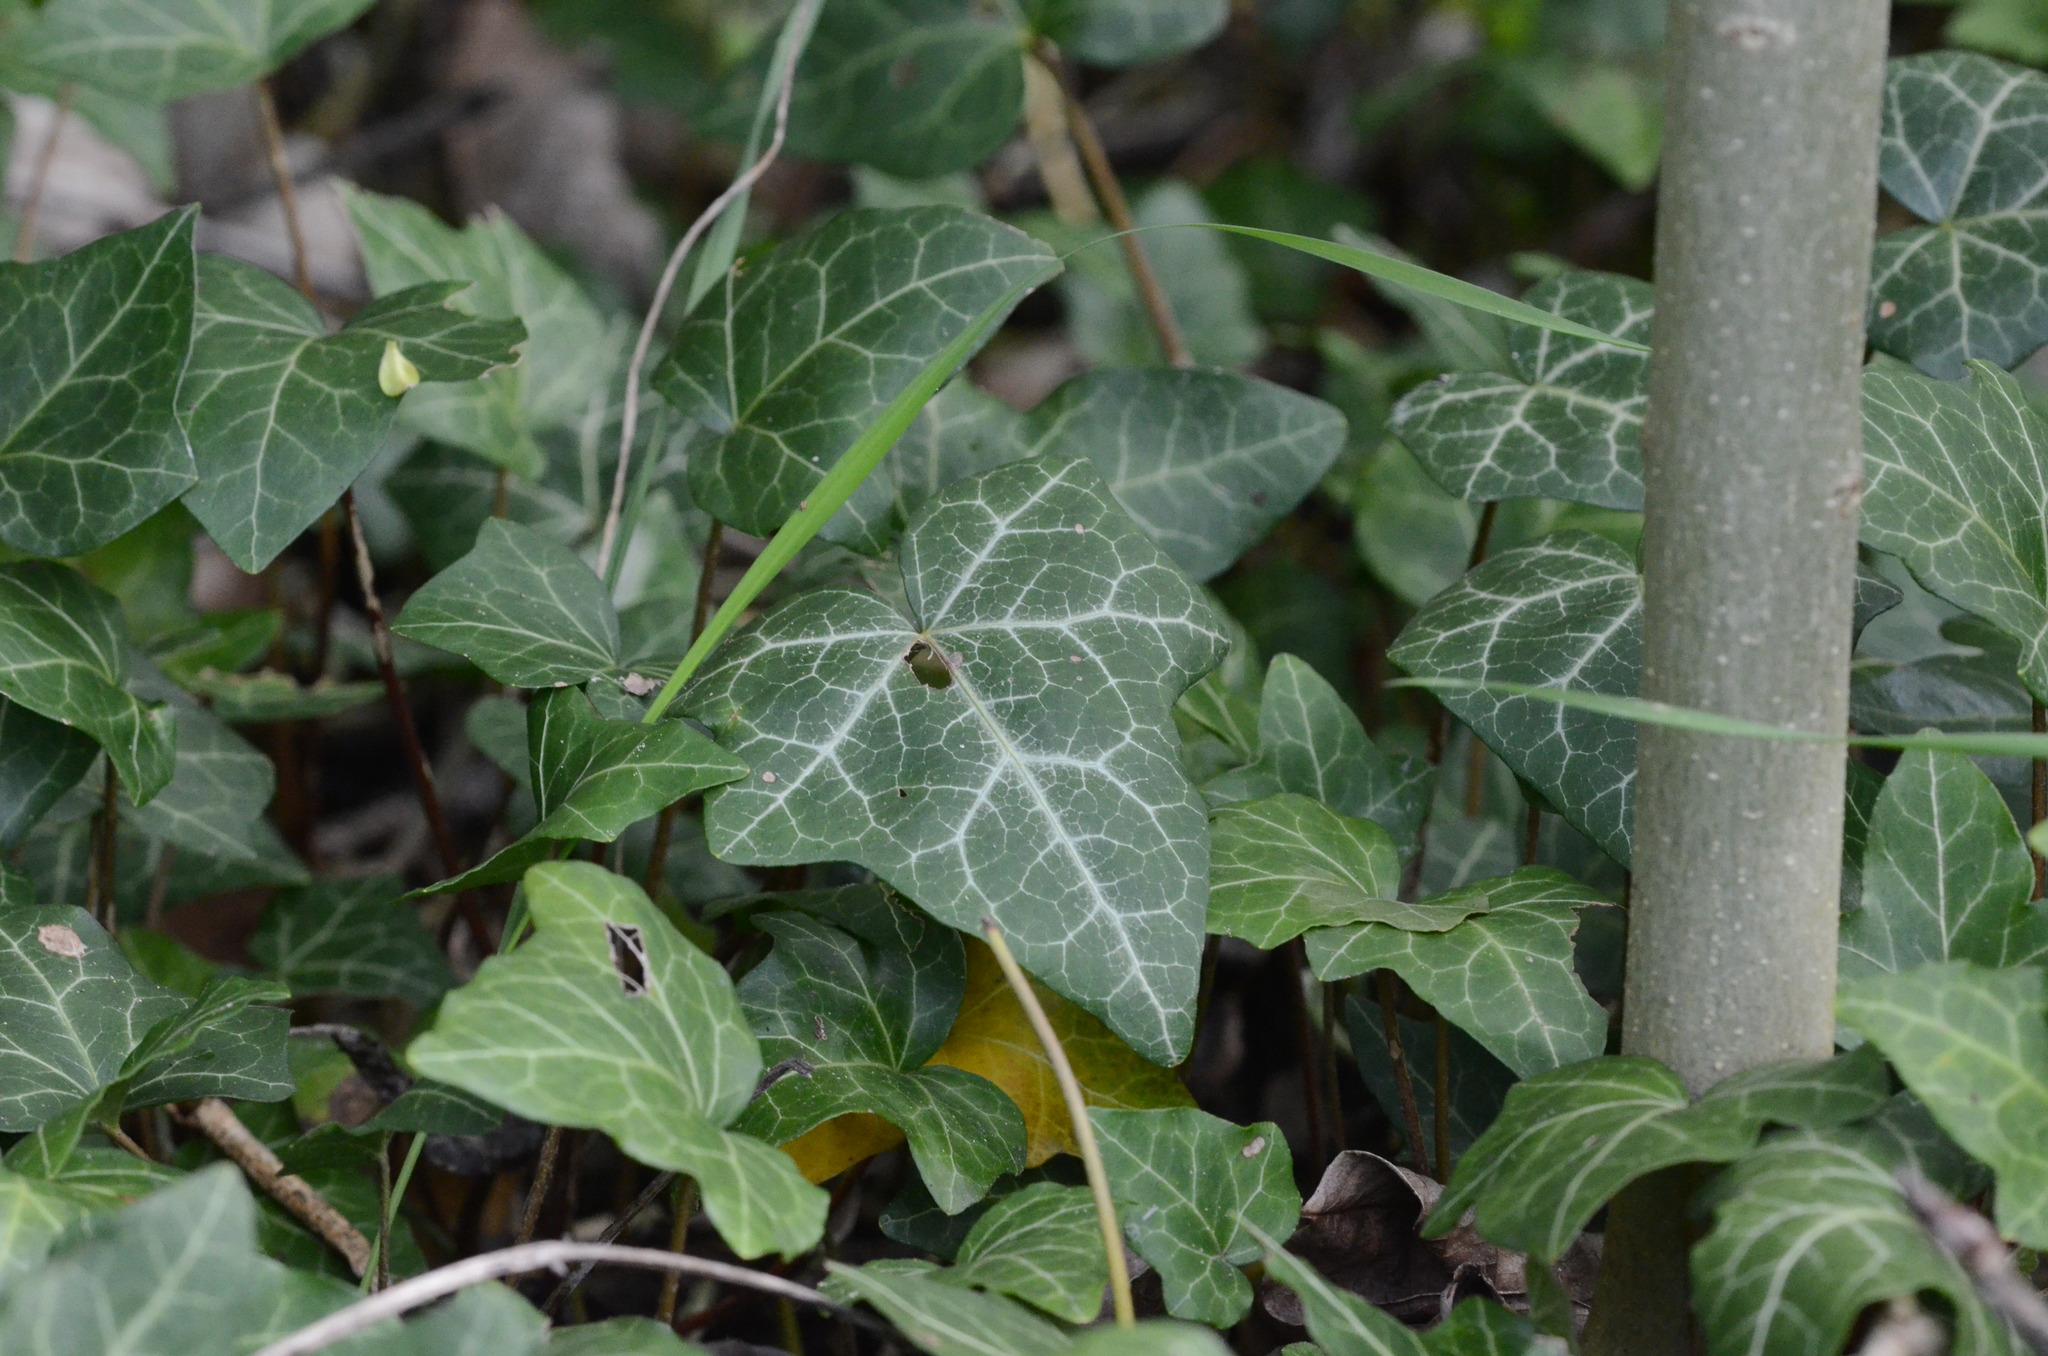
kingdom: Plantae
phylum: Tracheophyta
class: Magnoliopsida
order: Apiales
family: Araliaceae
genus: Hedera
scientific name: Hedera helix
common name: Ivy
